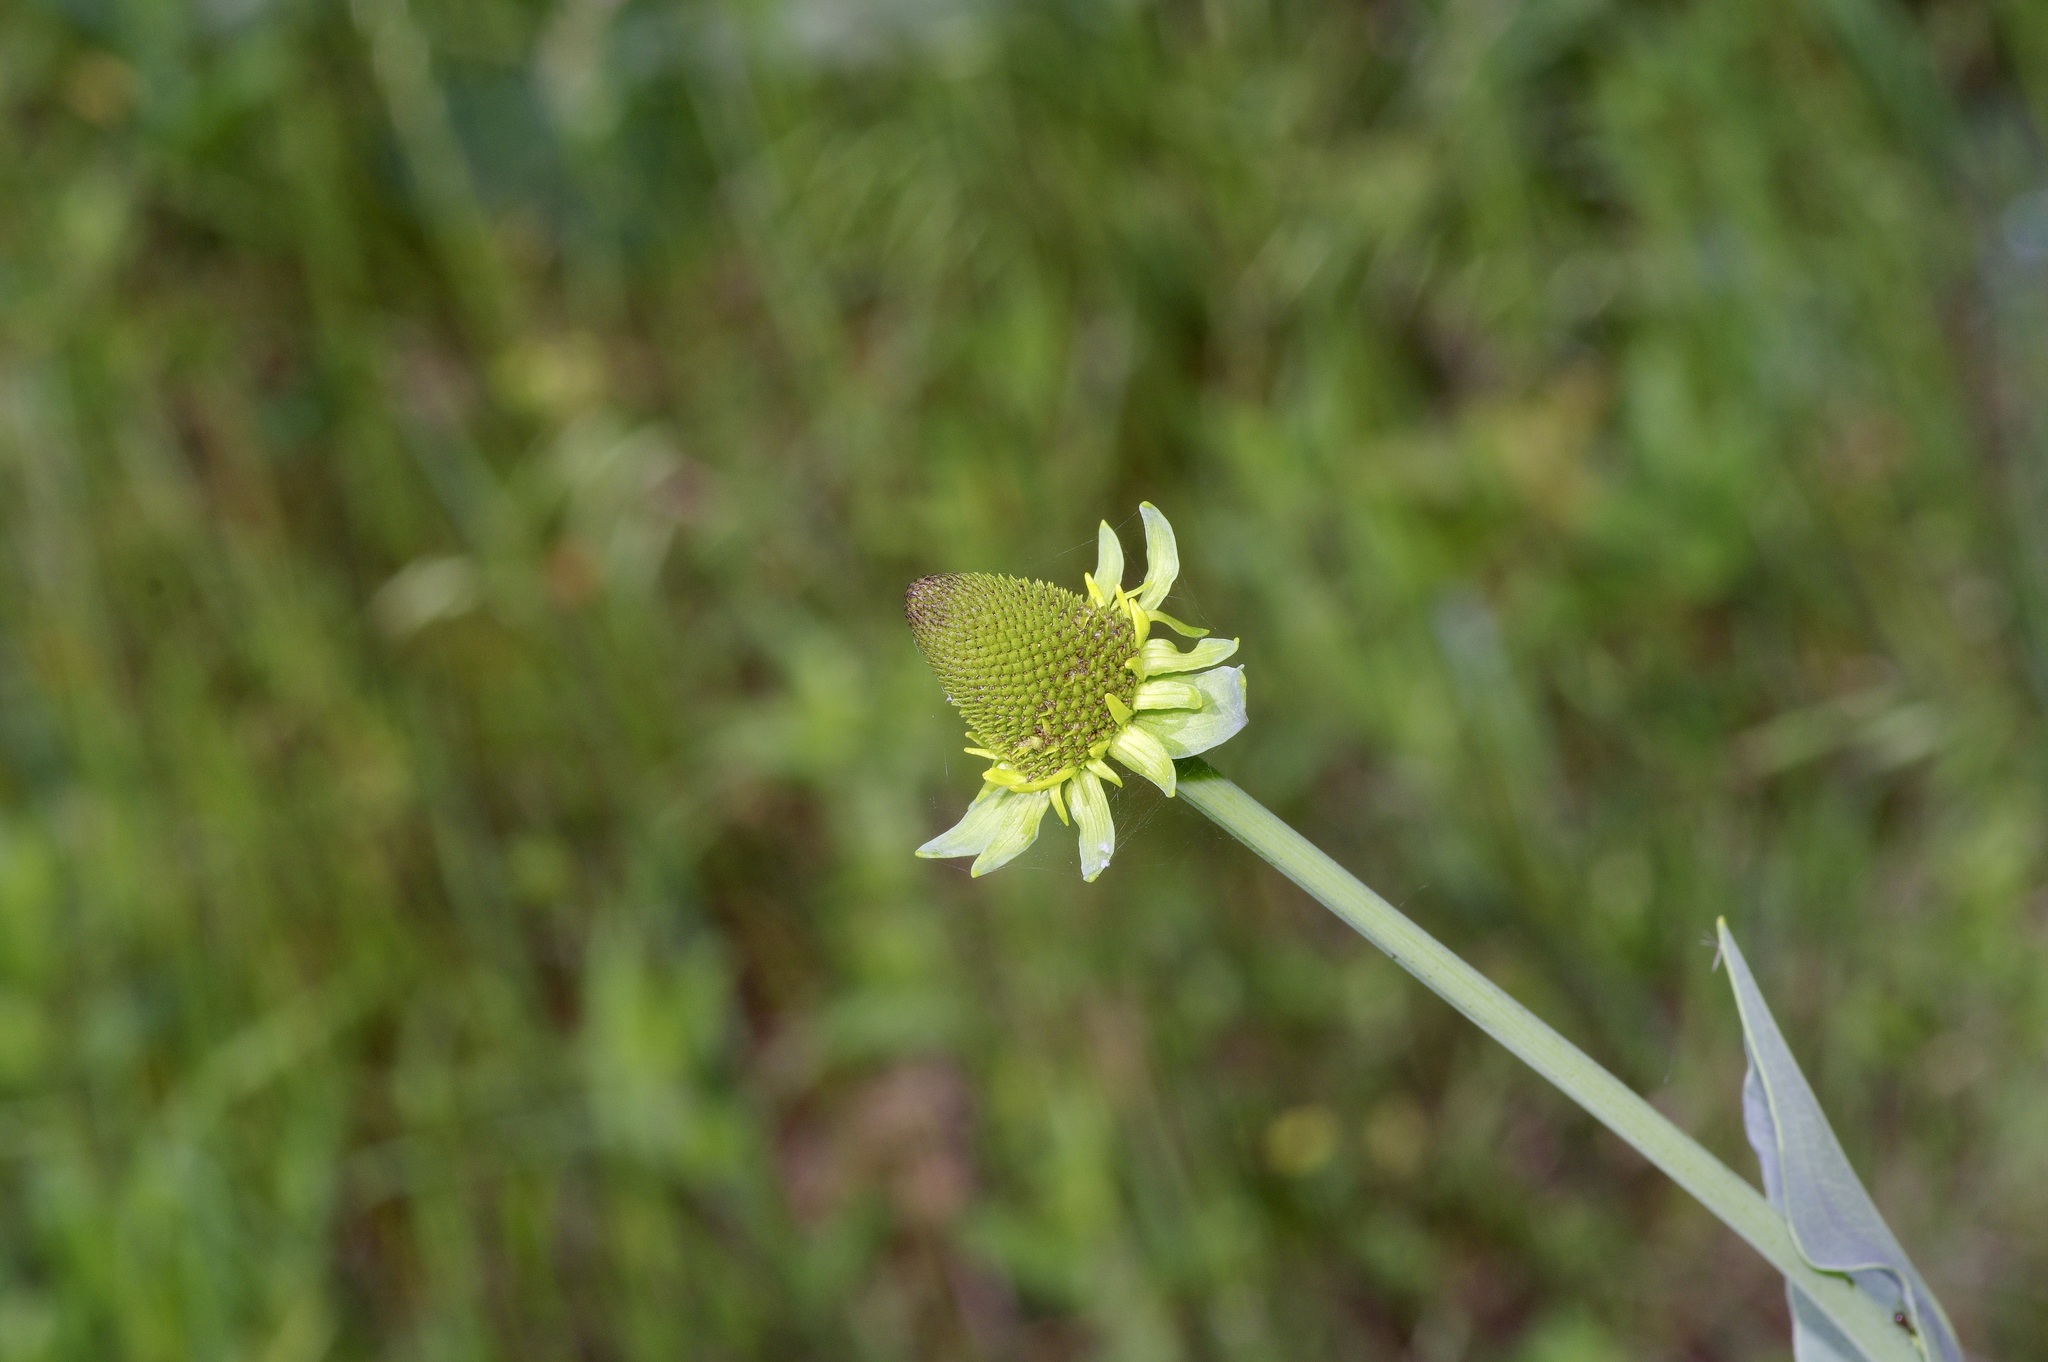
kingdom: Plantae
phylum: Tracheophyta
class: Magnoliopsida
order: Asterales
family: Asteraceae
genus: Rudbeckia
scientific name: Rudbeckia maxima
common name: Cabbage coneflower
